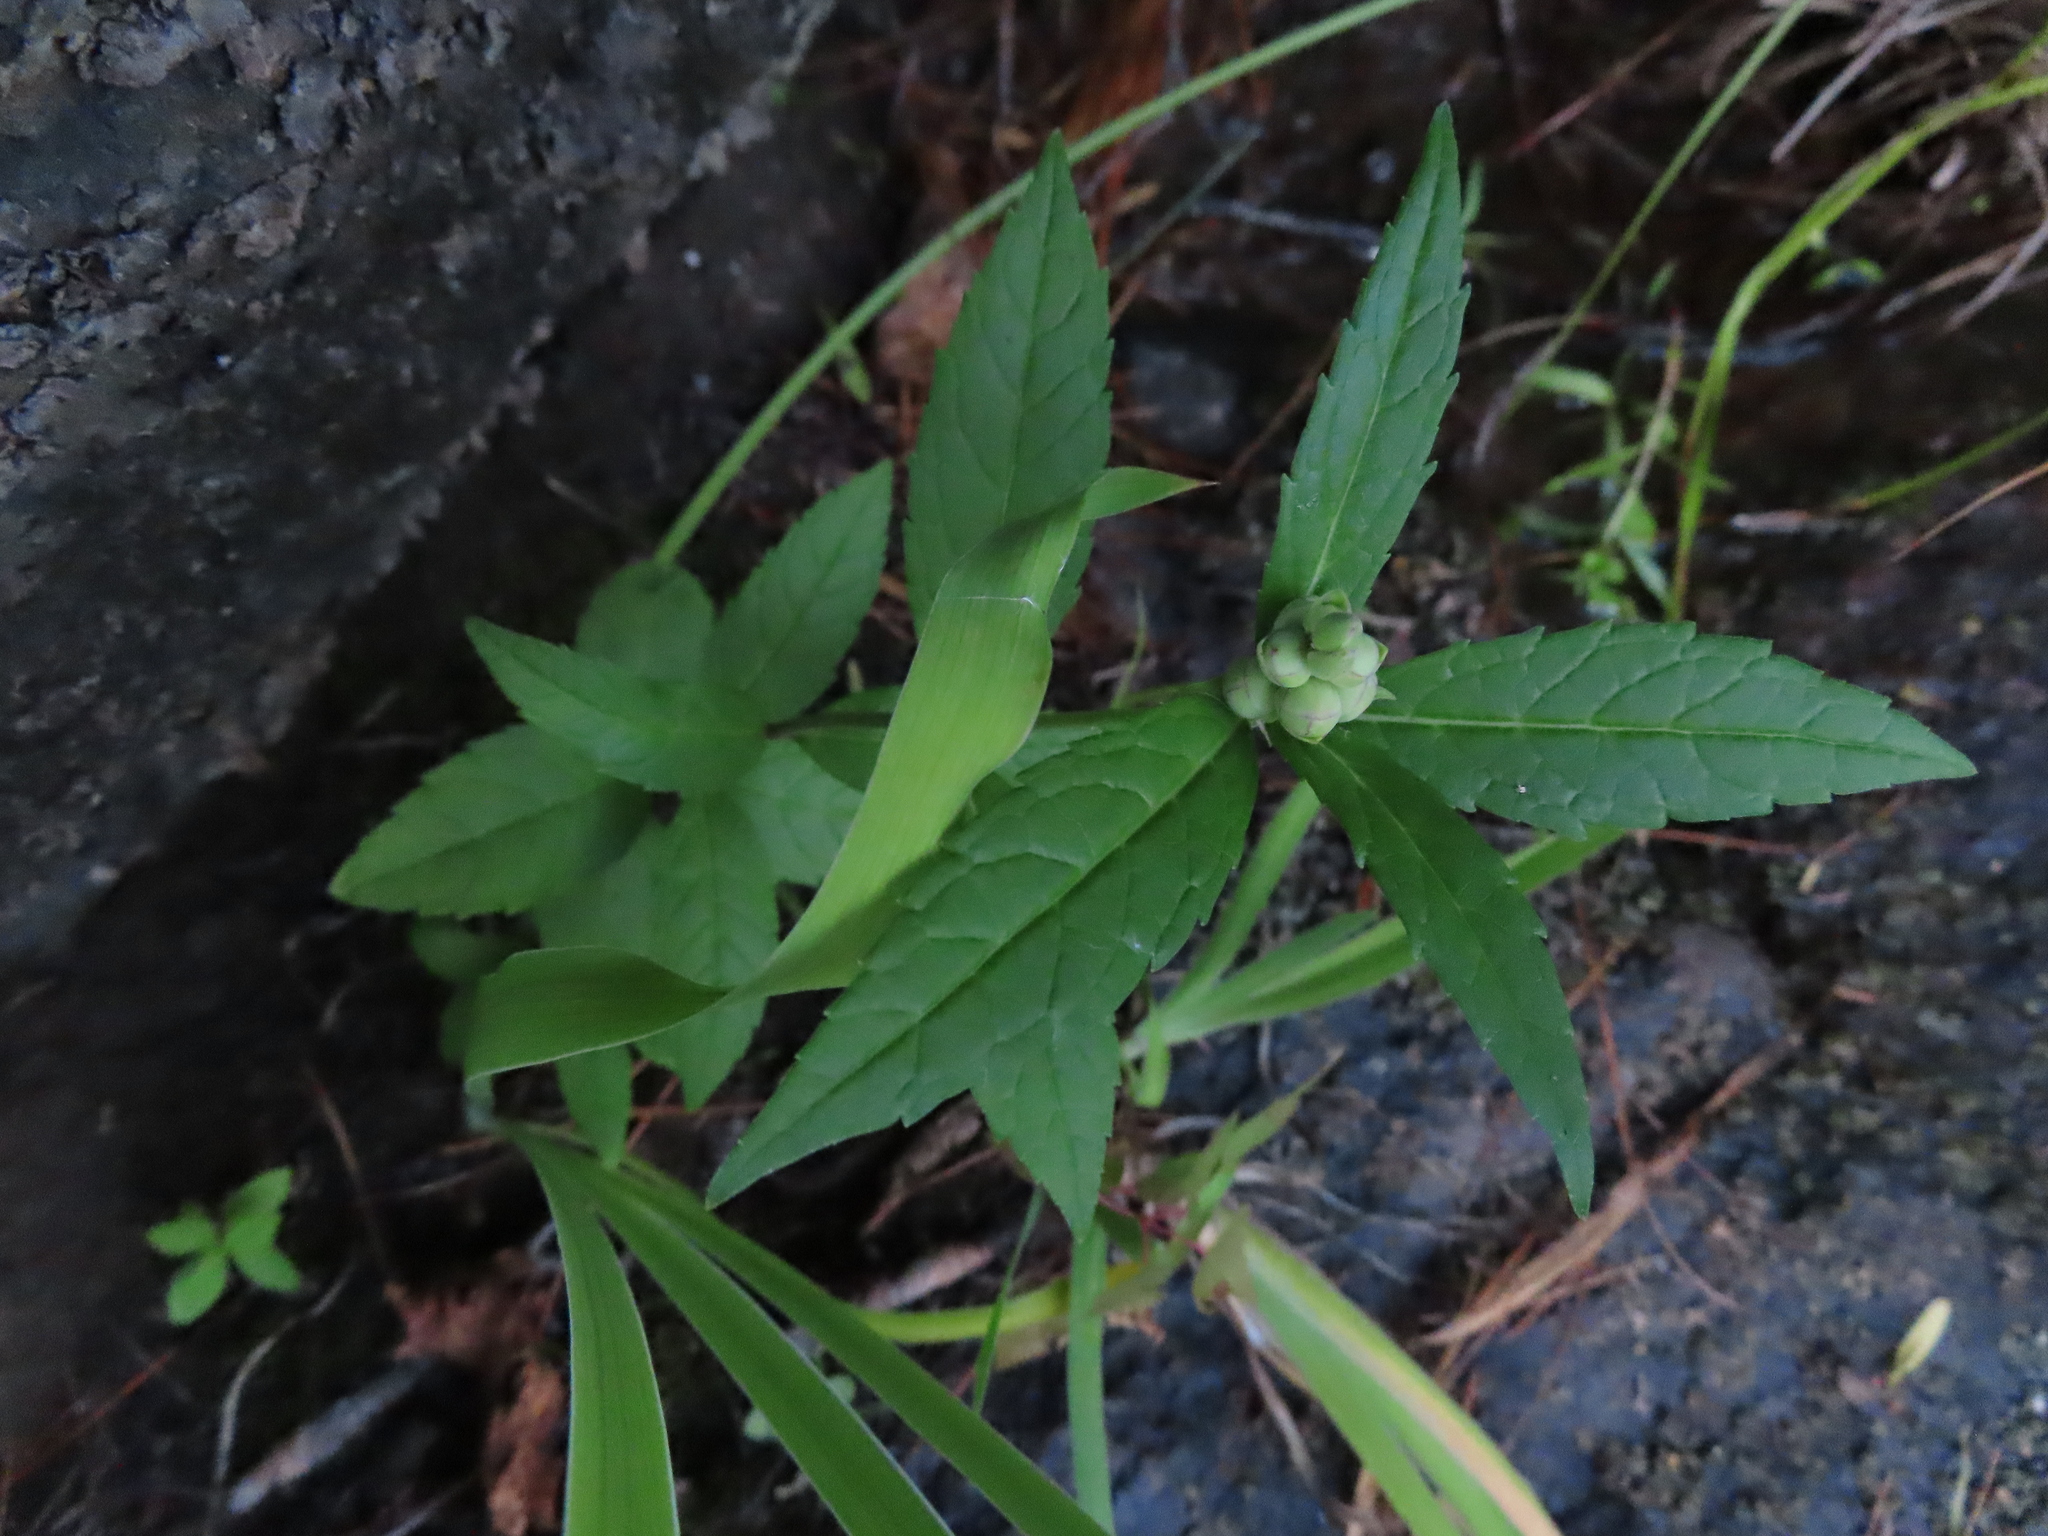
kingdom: Plantae
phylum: Tracheophyta
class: Magnoliopsida
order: Lamiales
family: Plantaginaceae
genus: Chelone
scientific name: Chelone glabra
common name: Snakehead
